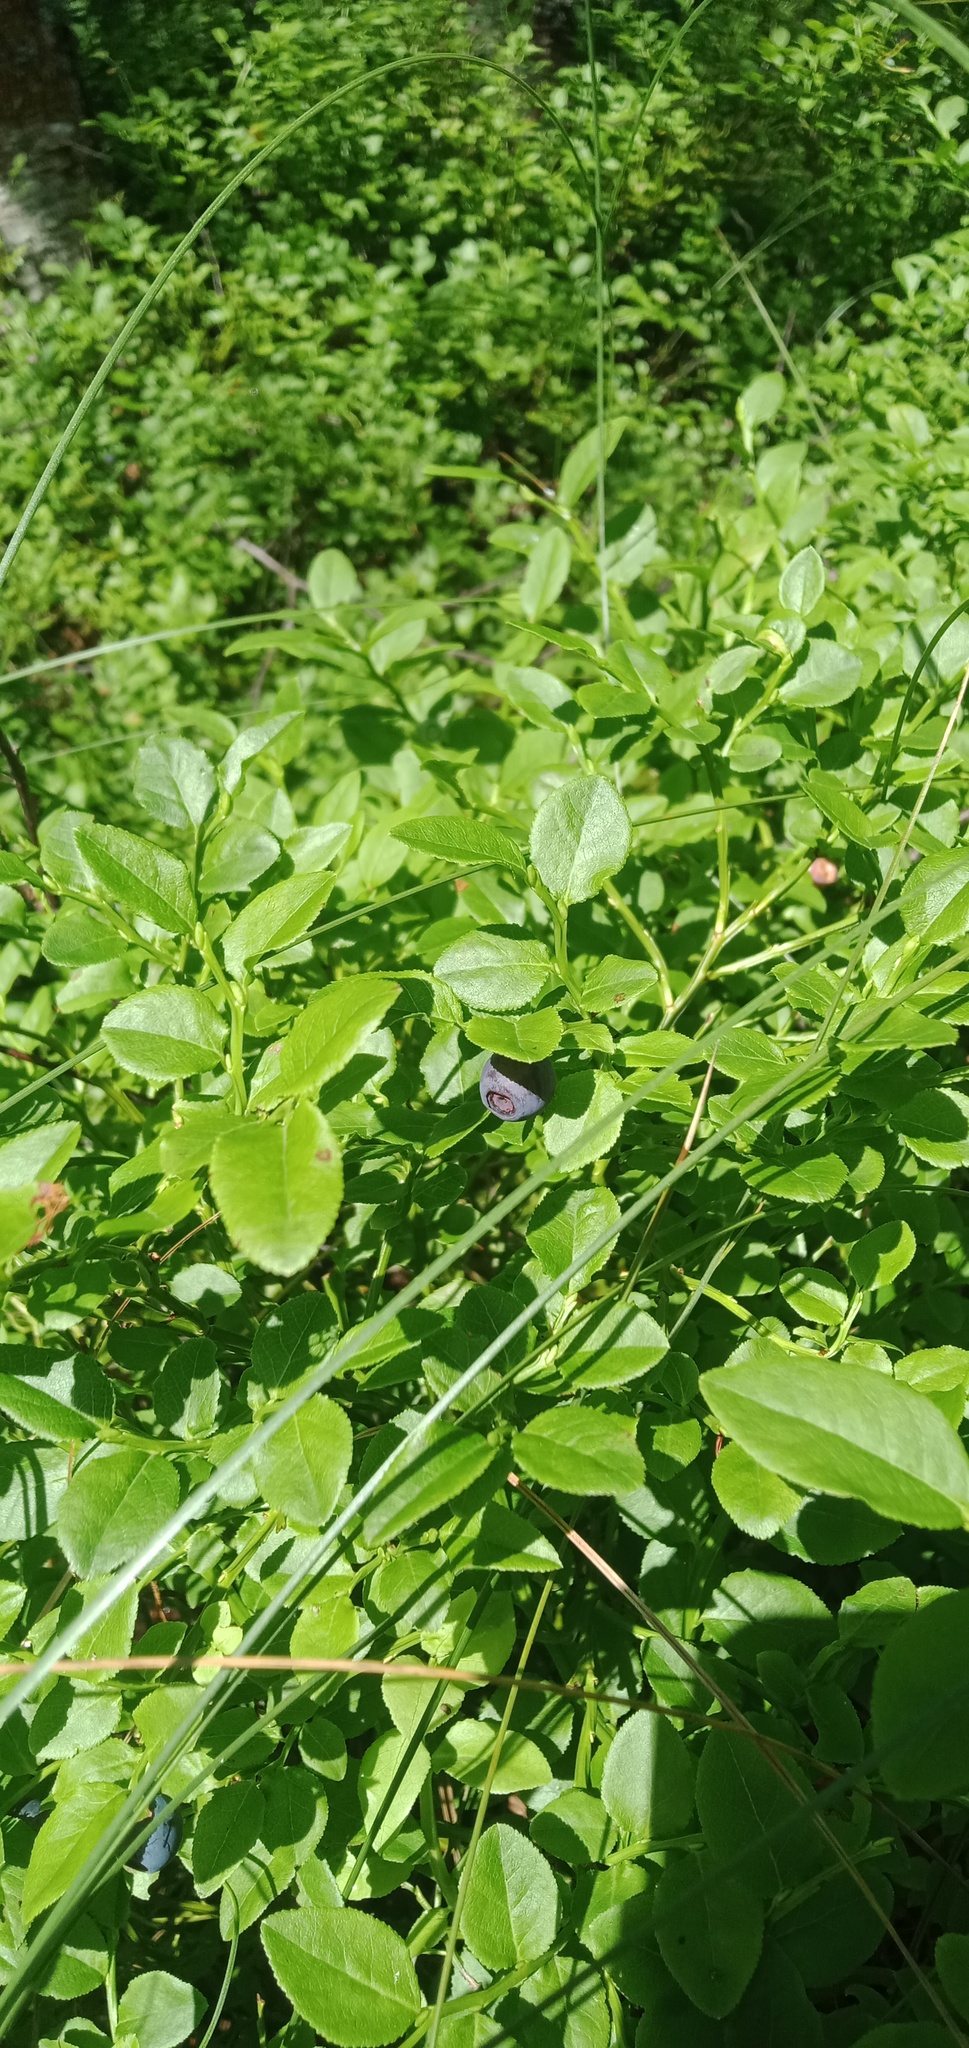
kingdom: Plantae
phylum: Tracheophyta
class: Magnoliopsida
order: Ericales
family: Ericaceae
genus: Vaccinium
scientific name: Vaccinium myrtillus
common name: Bilberry
